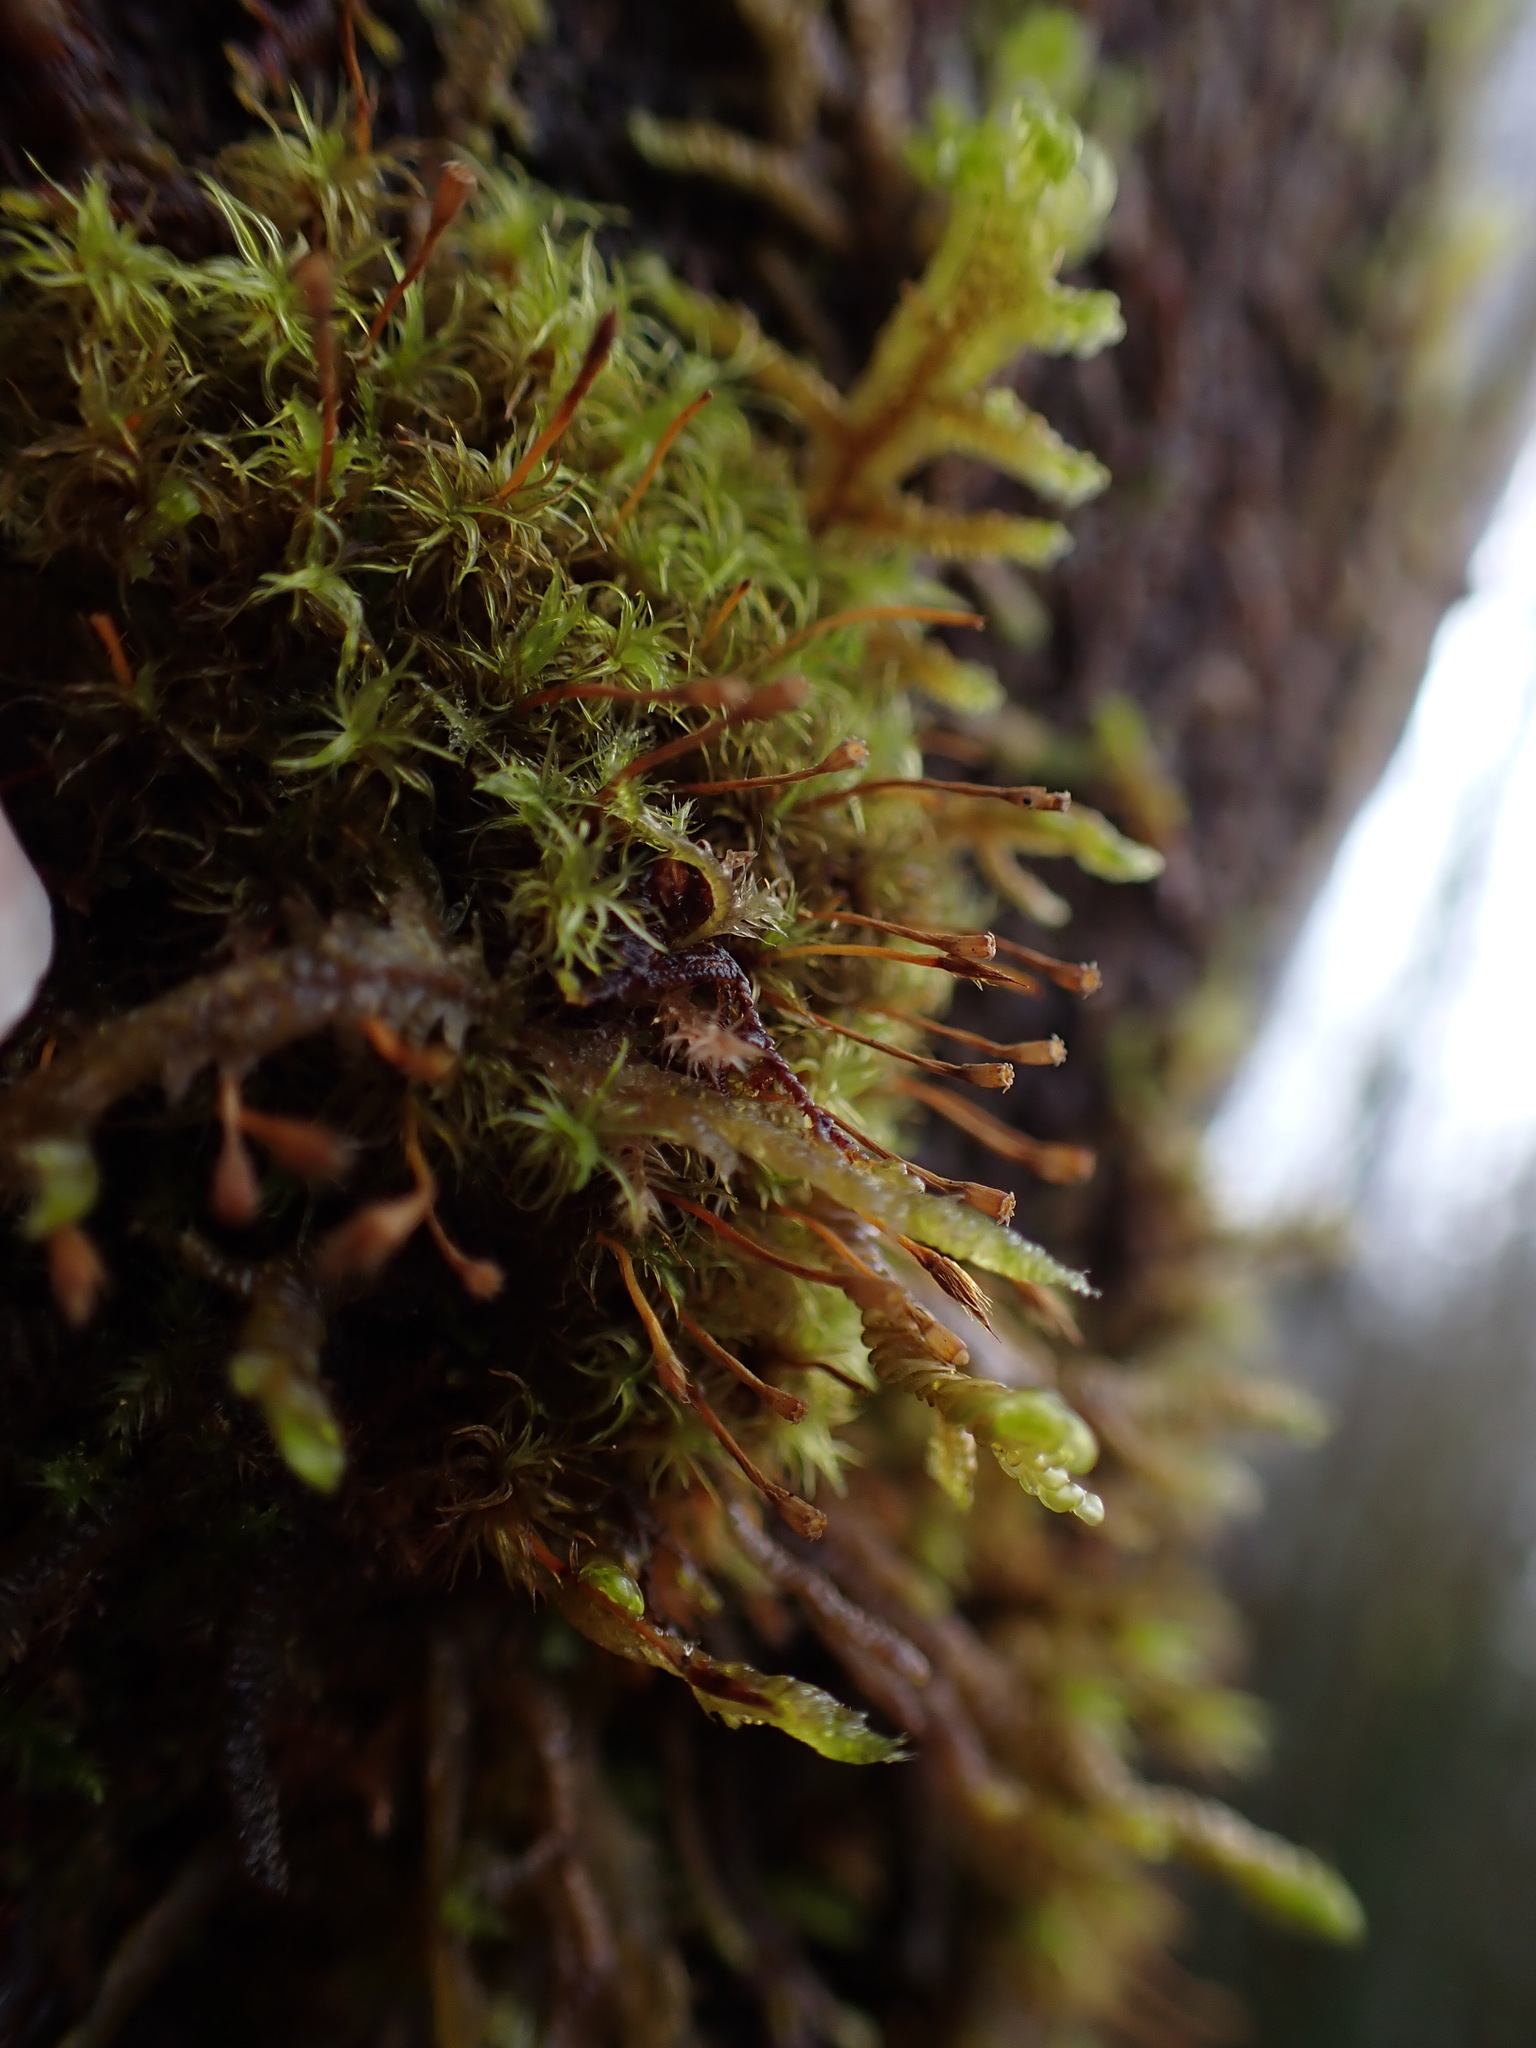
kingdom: Plantae
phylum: Bryophyta
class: Bryopsida
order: Orthotrichales
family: Orthotrichaceae
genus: Ulota
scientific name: Ulota obtusiuscula
